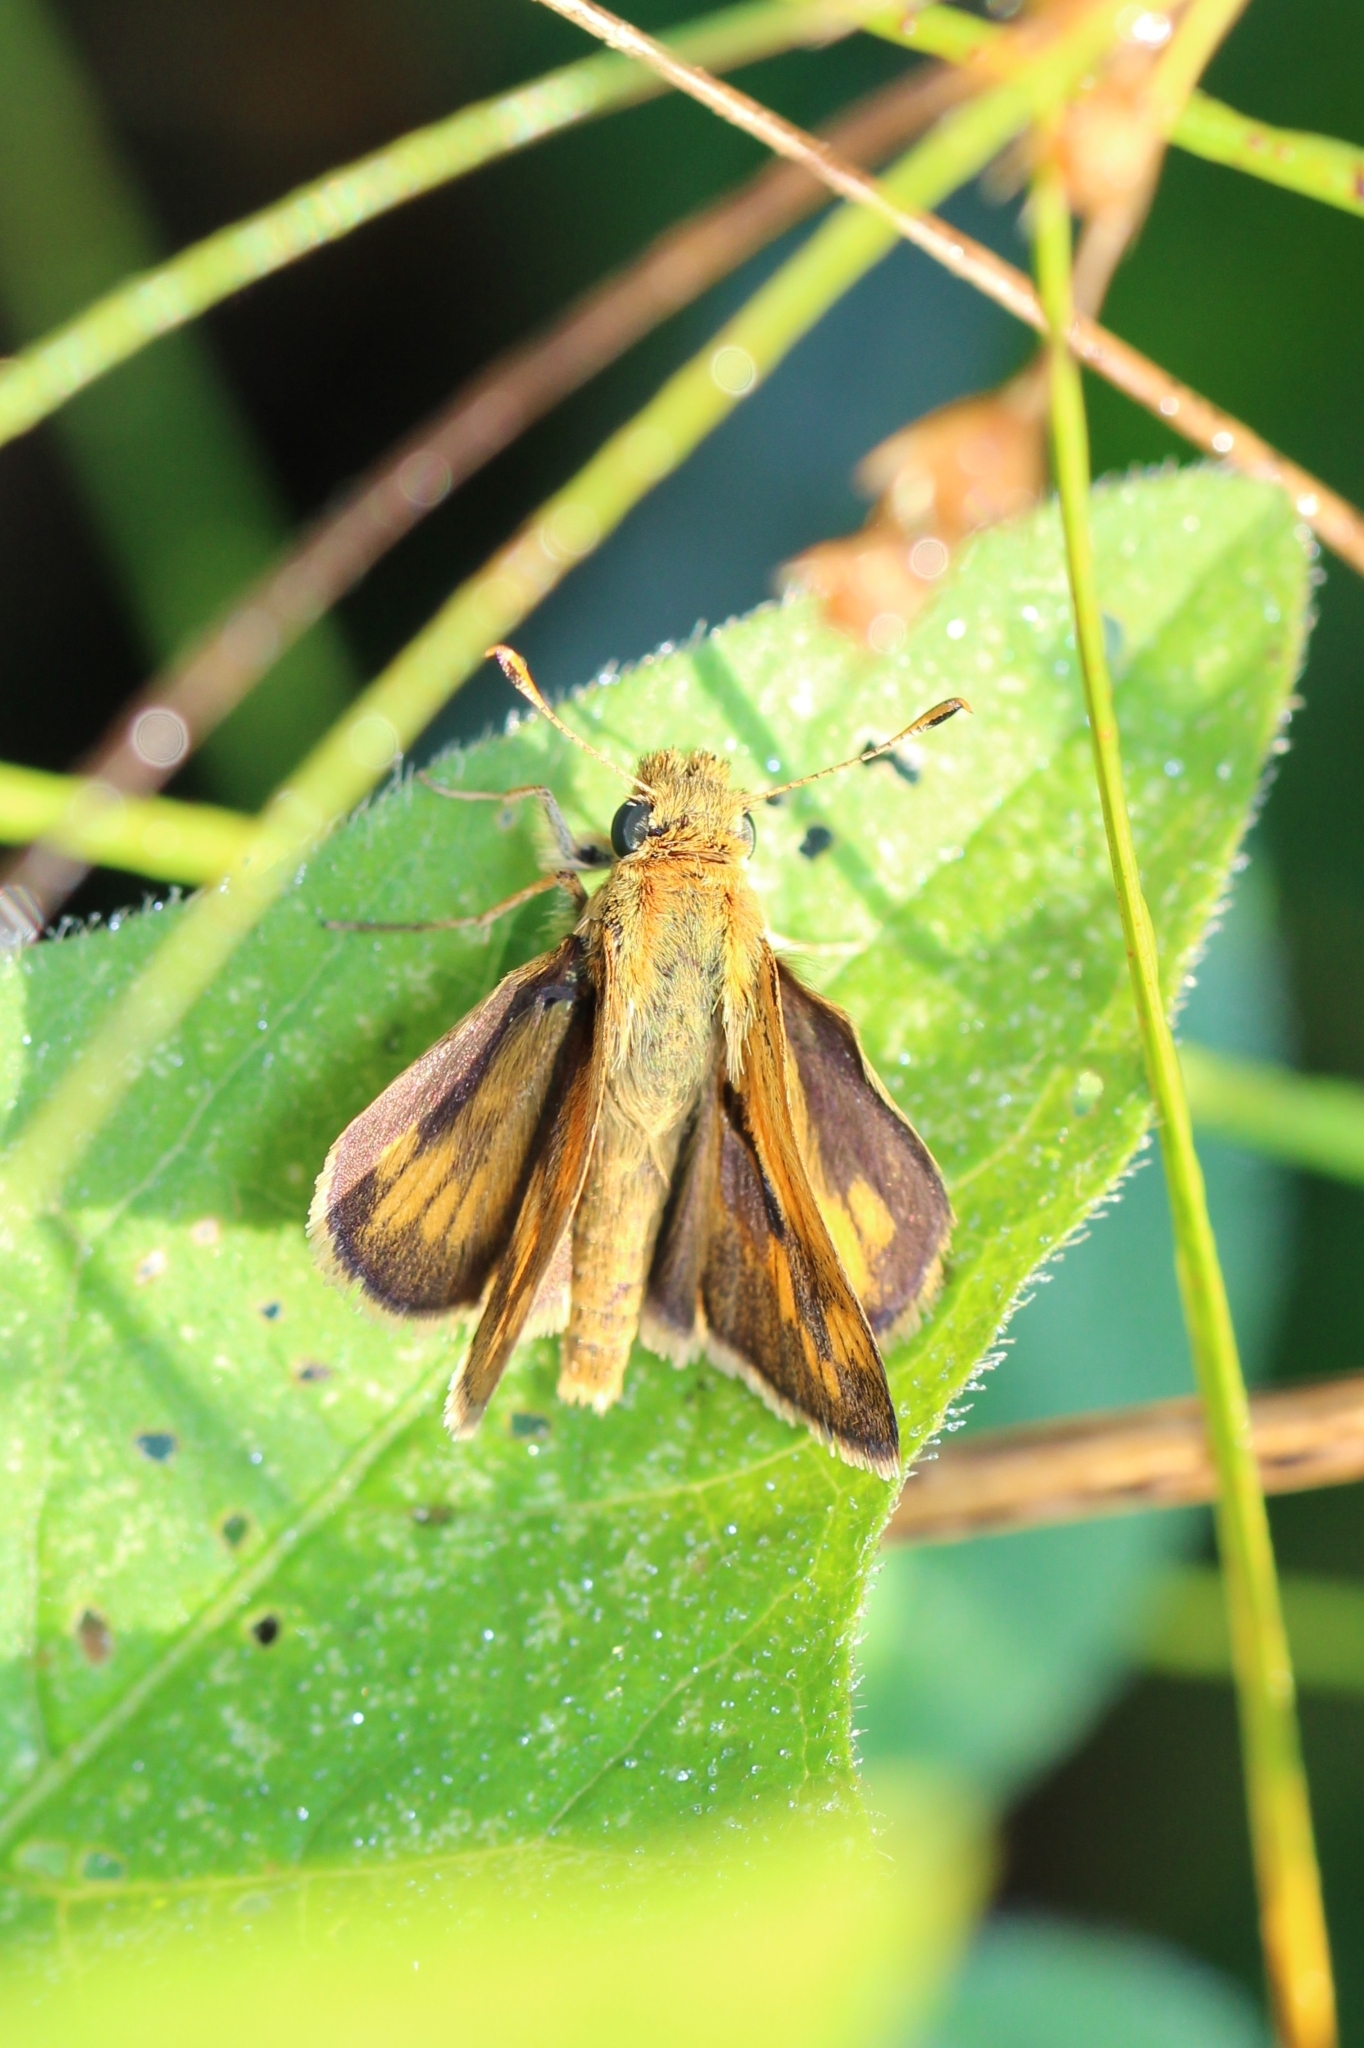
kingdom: Animalia
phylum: Arthropoda
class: Insecta
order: Lepidoptera
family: Hesperiidae
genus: Polites
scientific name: Polites coras
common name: Peck's skipper
